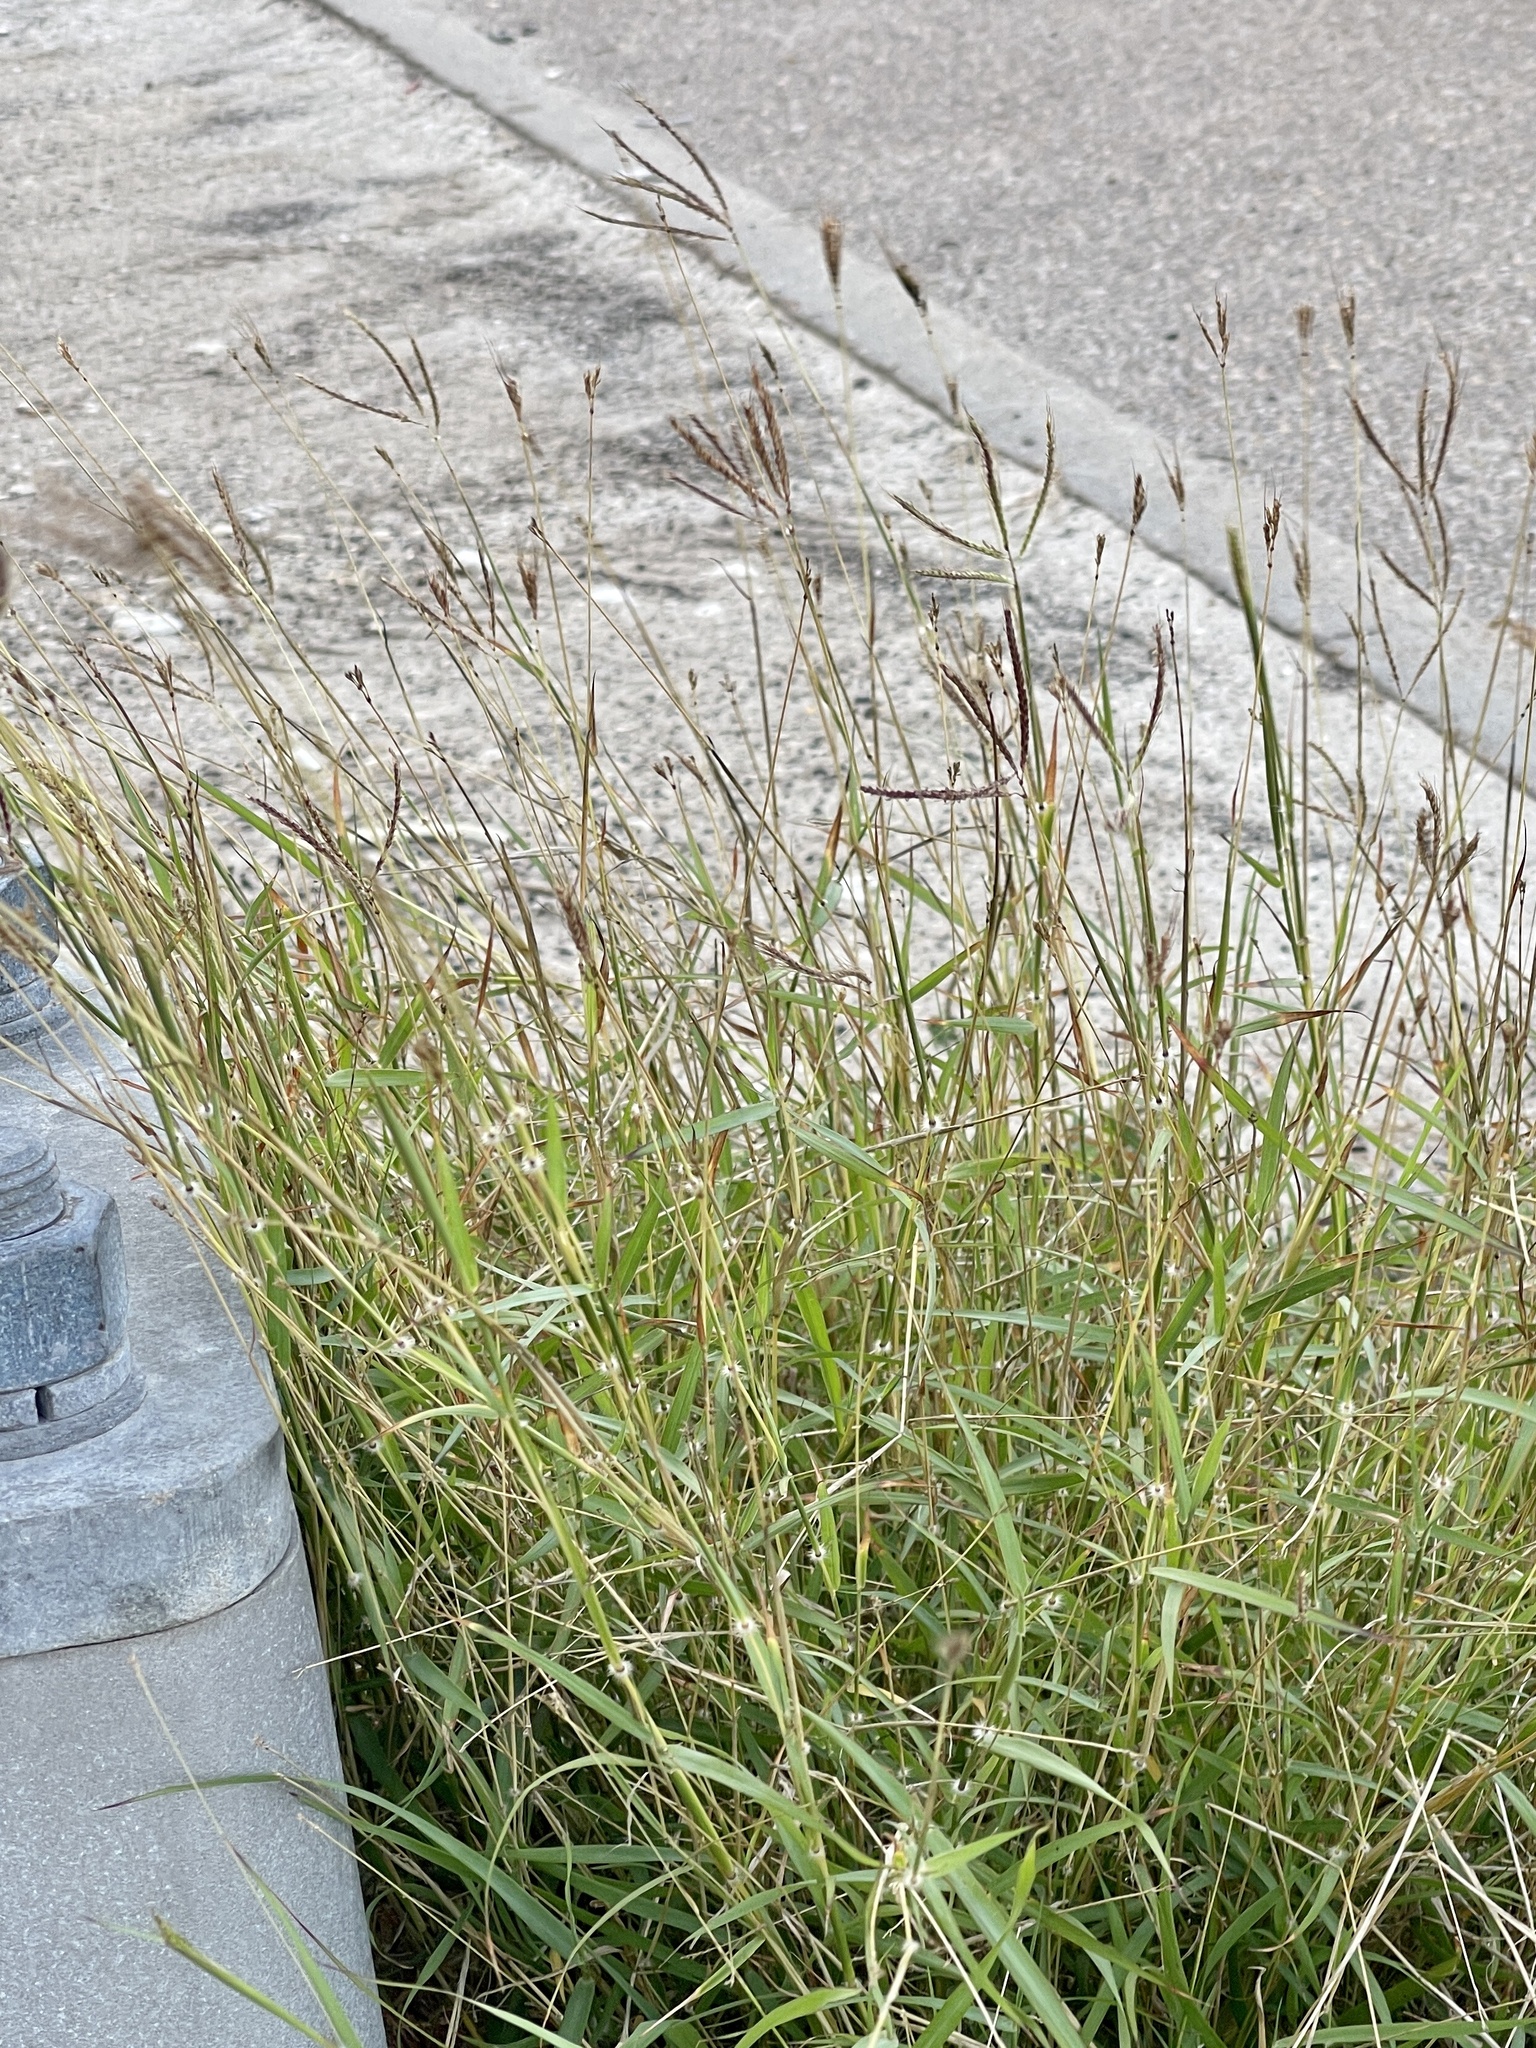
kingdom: Plantae
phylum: Tracheophyta
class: Liliopsida
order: Poales
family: Poaceae
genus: Dichanthium
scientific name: Dichanthium annulatum
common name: Kleberg's bluestem
